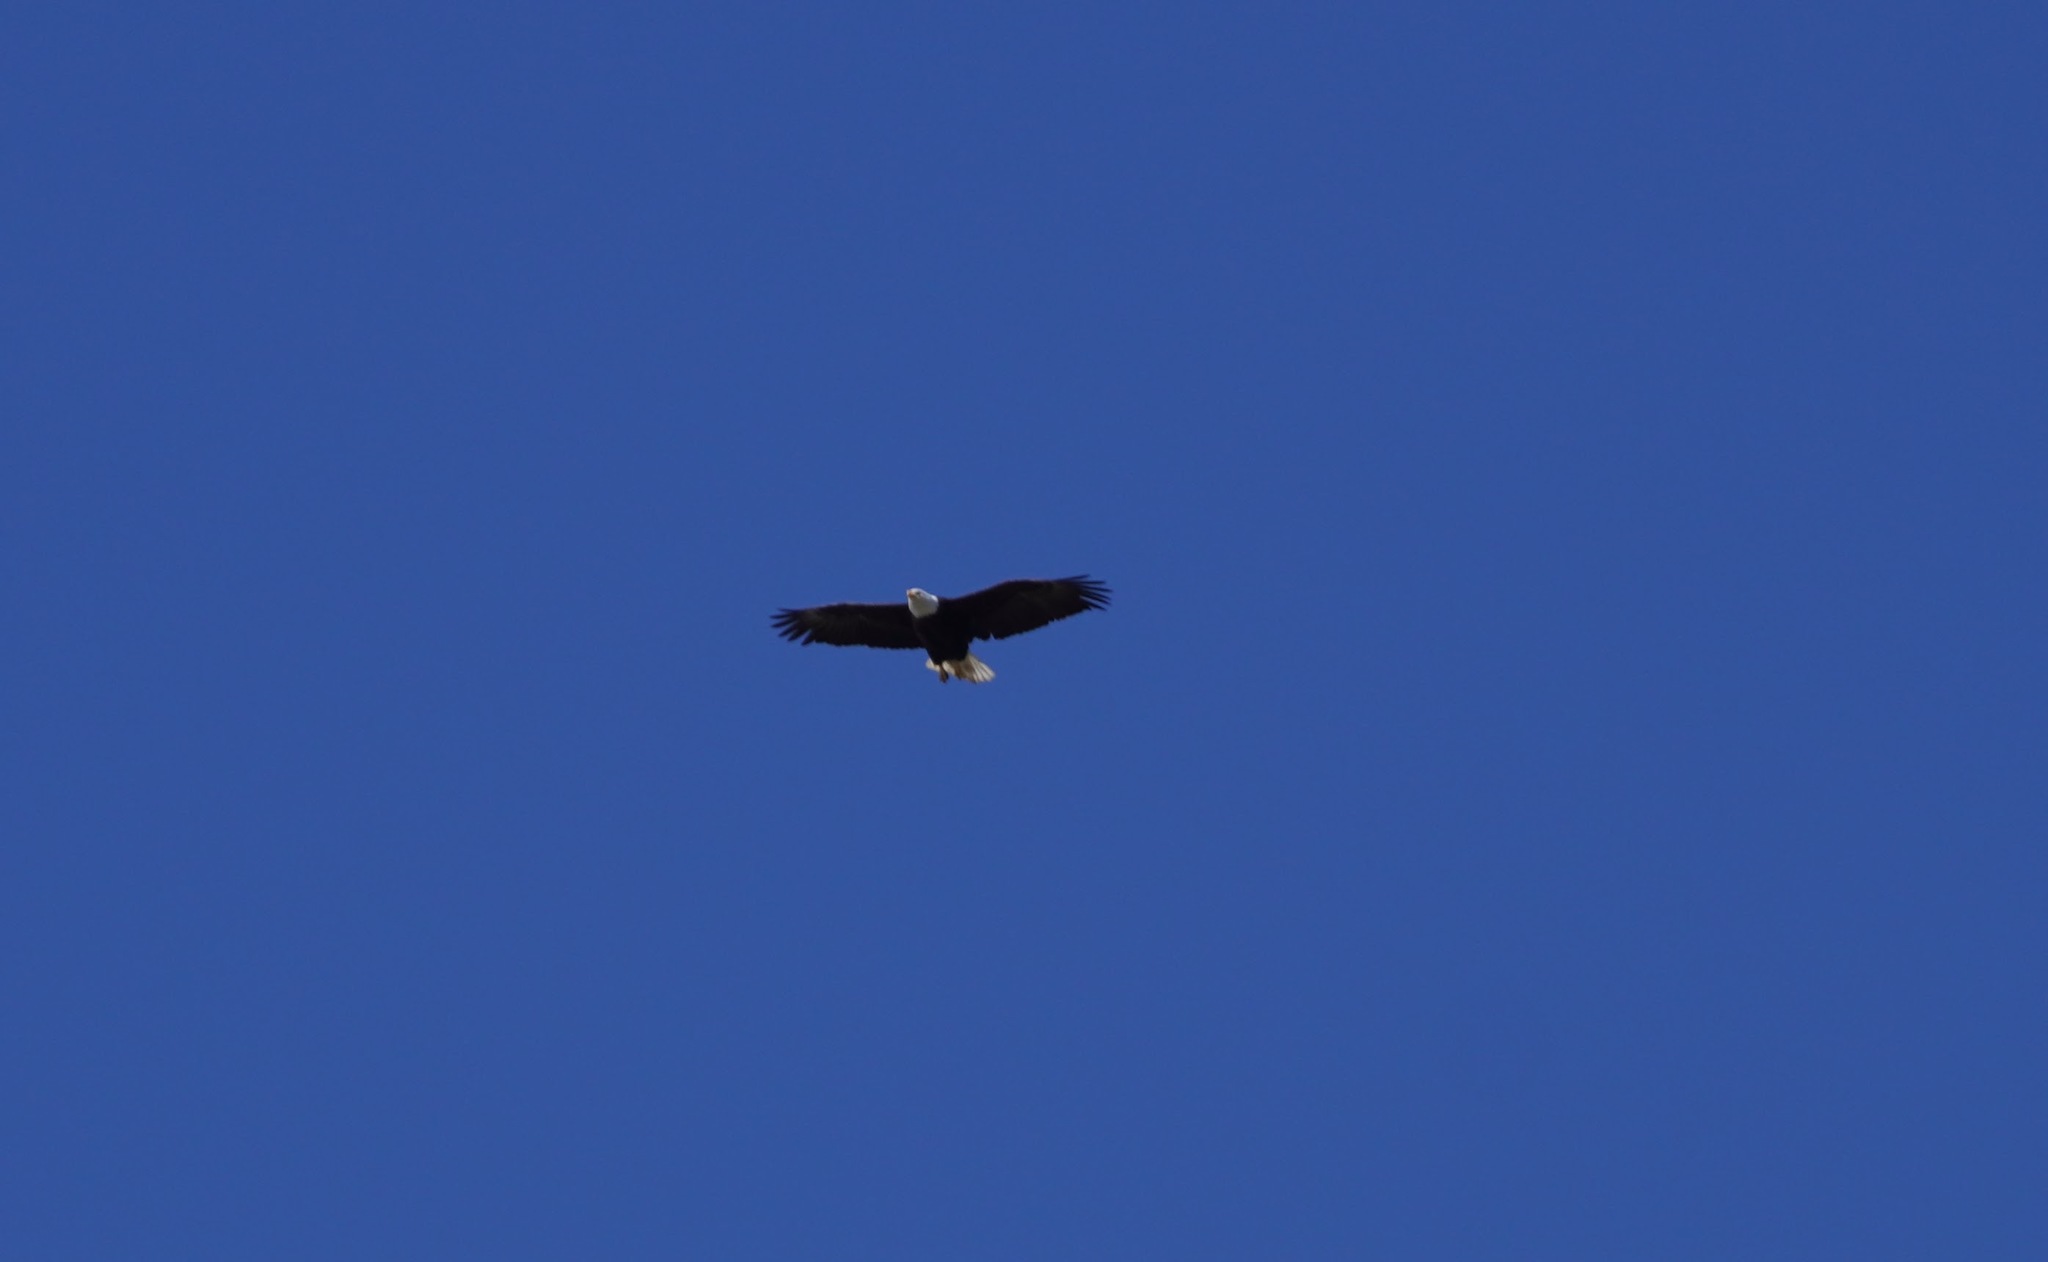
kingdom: Animalia
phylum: Chordata
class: Aves
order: Accipitriformes
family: Accipitridae
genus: Haliaeetus
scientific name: Haliaeetus leucocephalus
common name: Bald eagle
